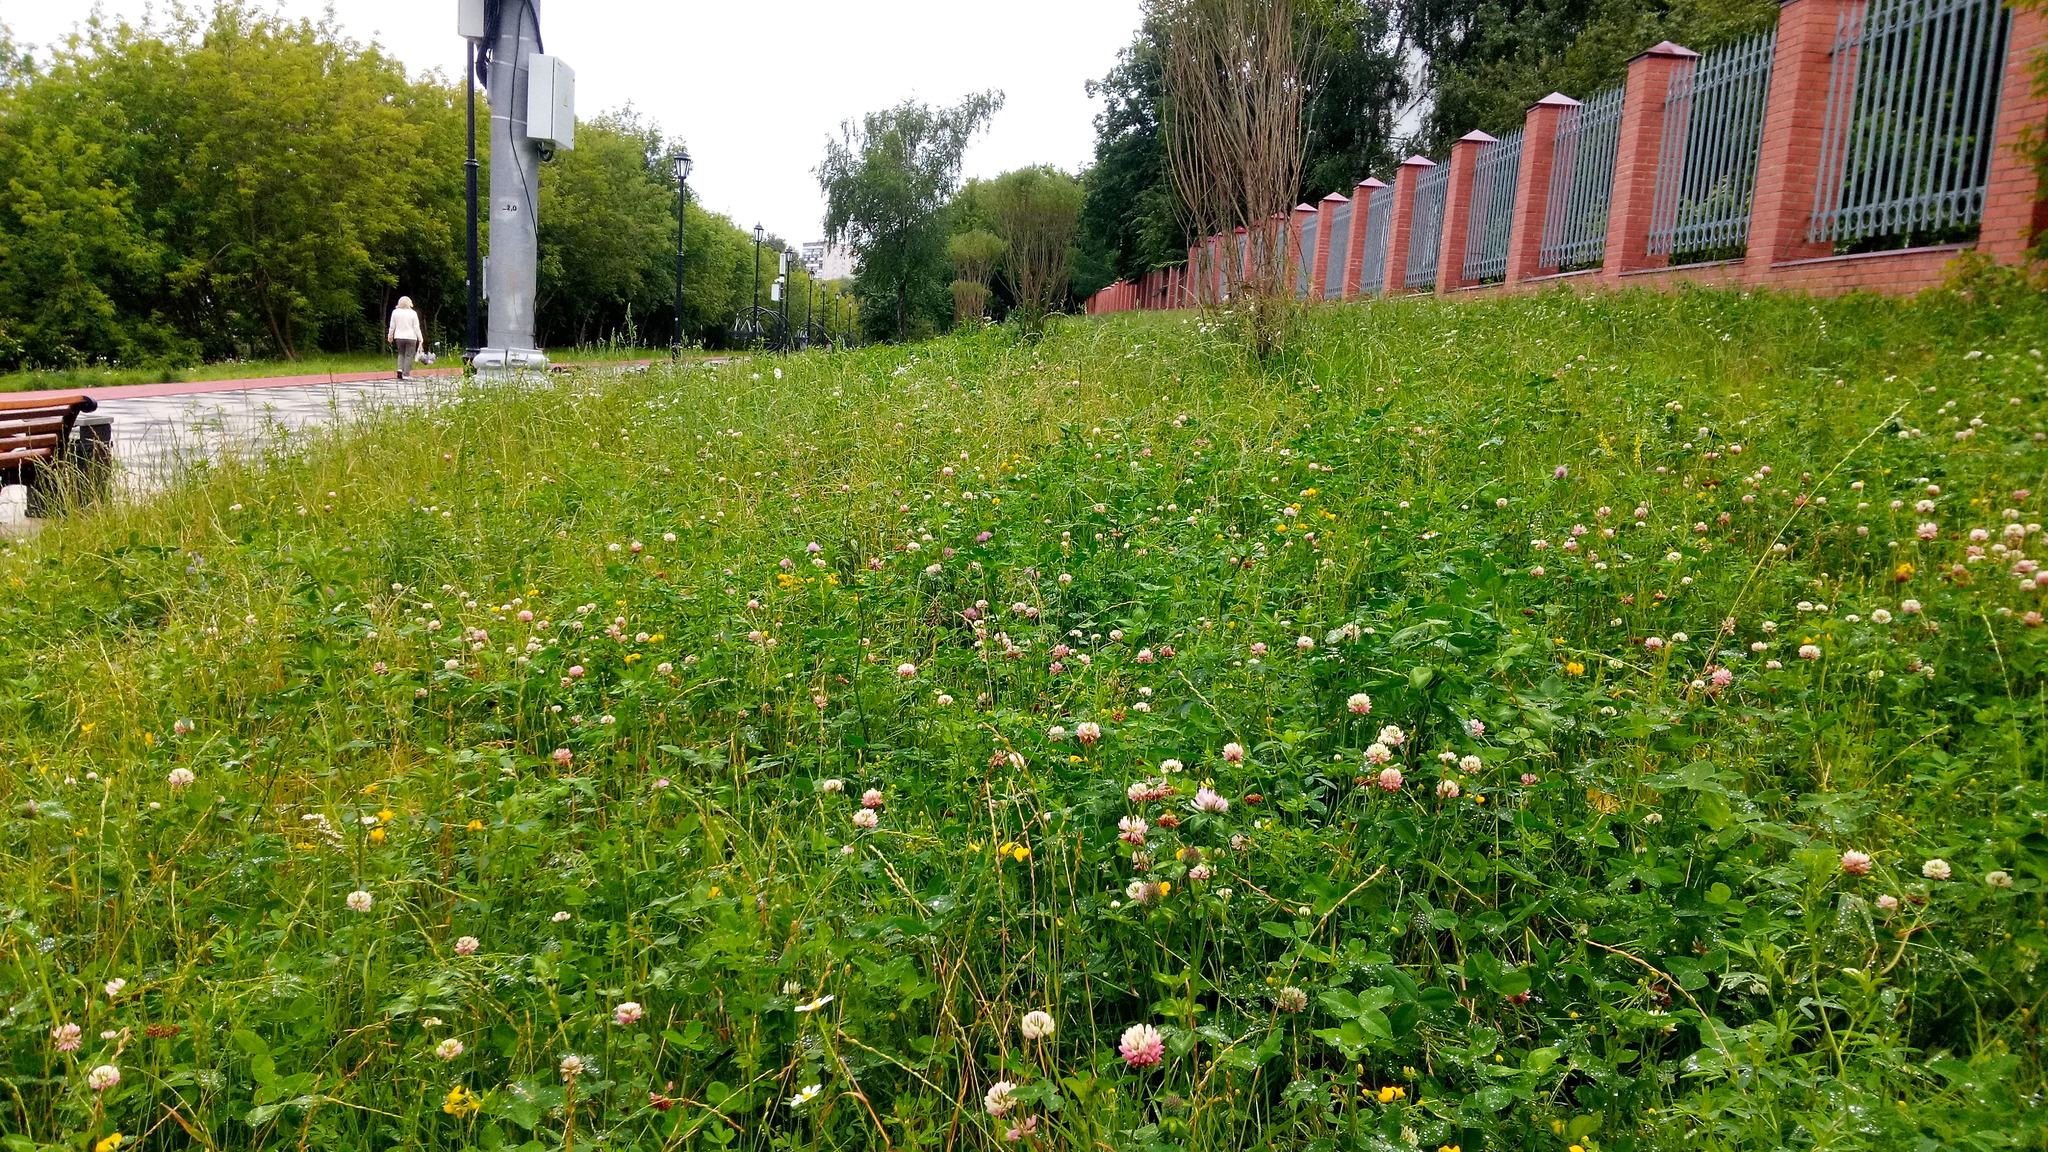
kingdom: Plantae
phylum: Tracheophyta
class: Magnoliopsida
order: Fabales
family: Fabaceae
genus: Lotus
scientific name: Lotus corniculatus
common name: Common bird's-foot-trefoil
